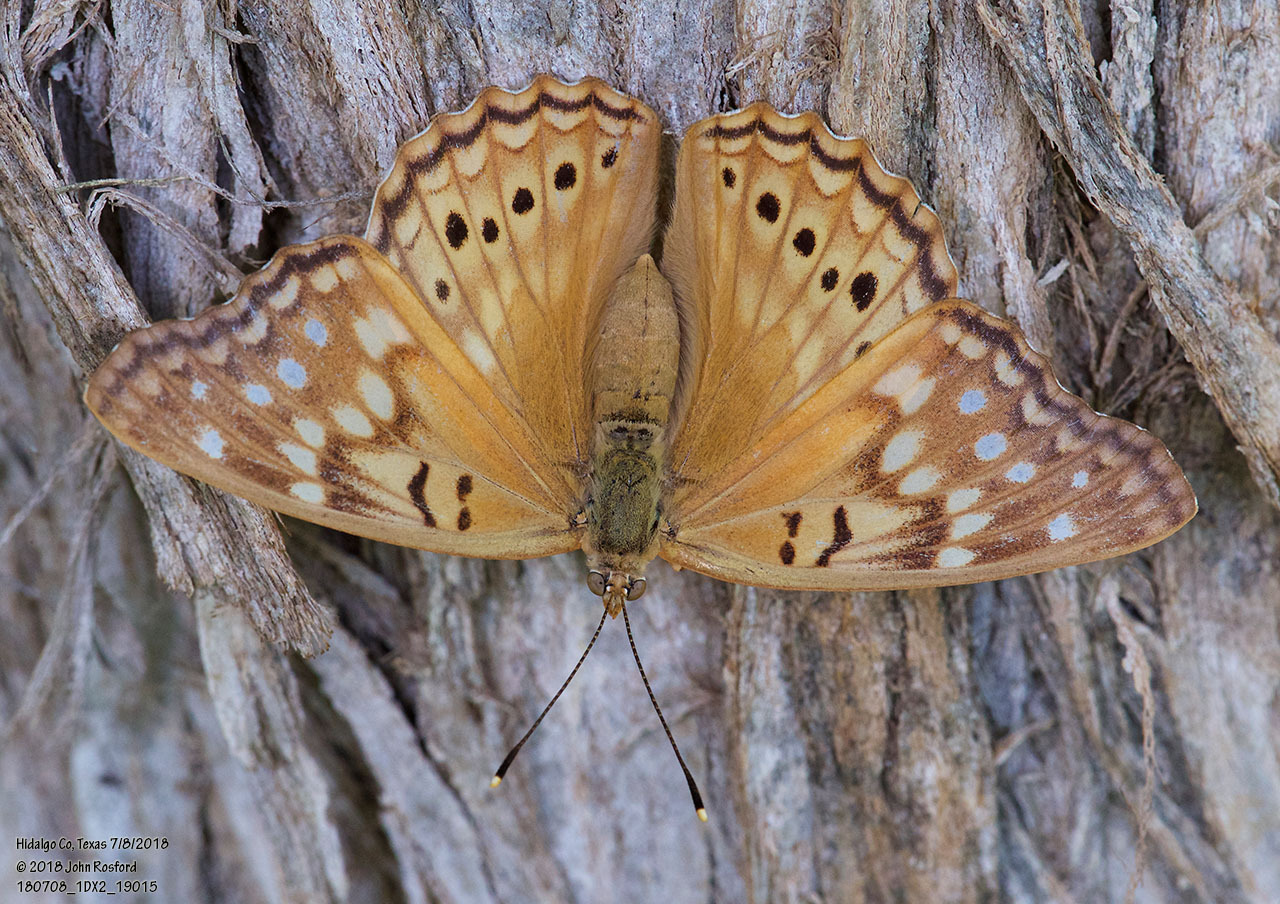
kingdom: Animalia
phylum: Arthropoda
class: Insecta
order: Lepidoptera
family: Nymphalidae
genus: Asterocampa
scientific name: Asterocampa clyton
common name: Tawny emperor
